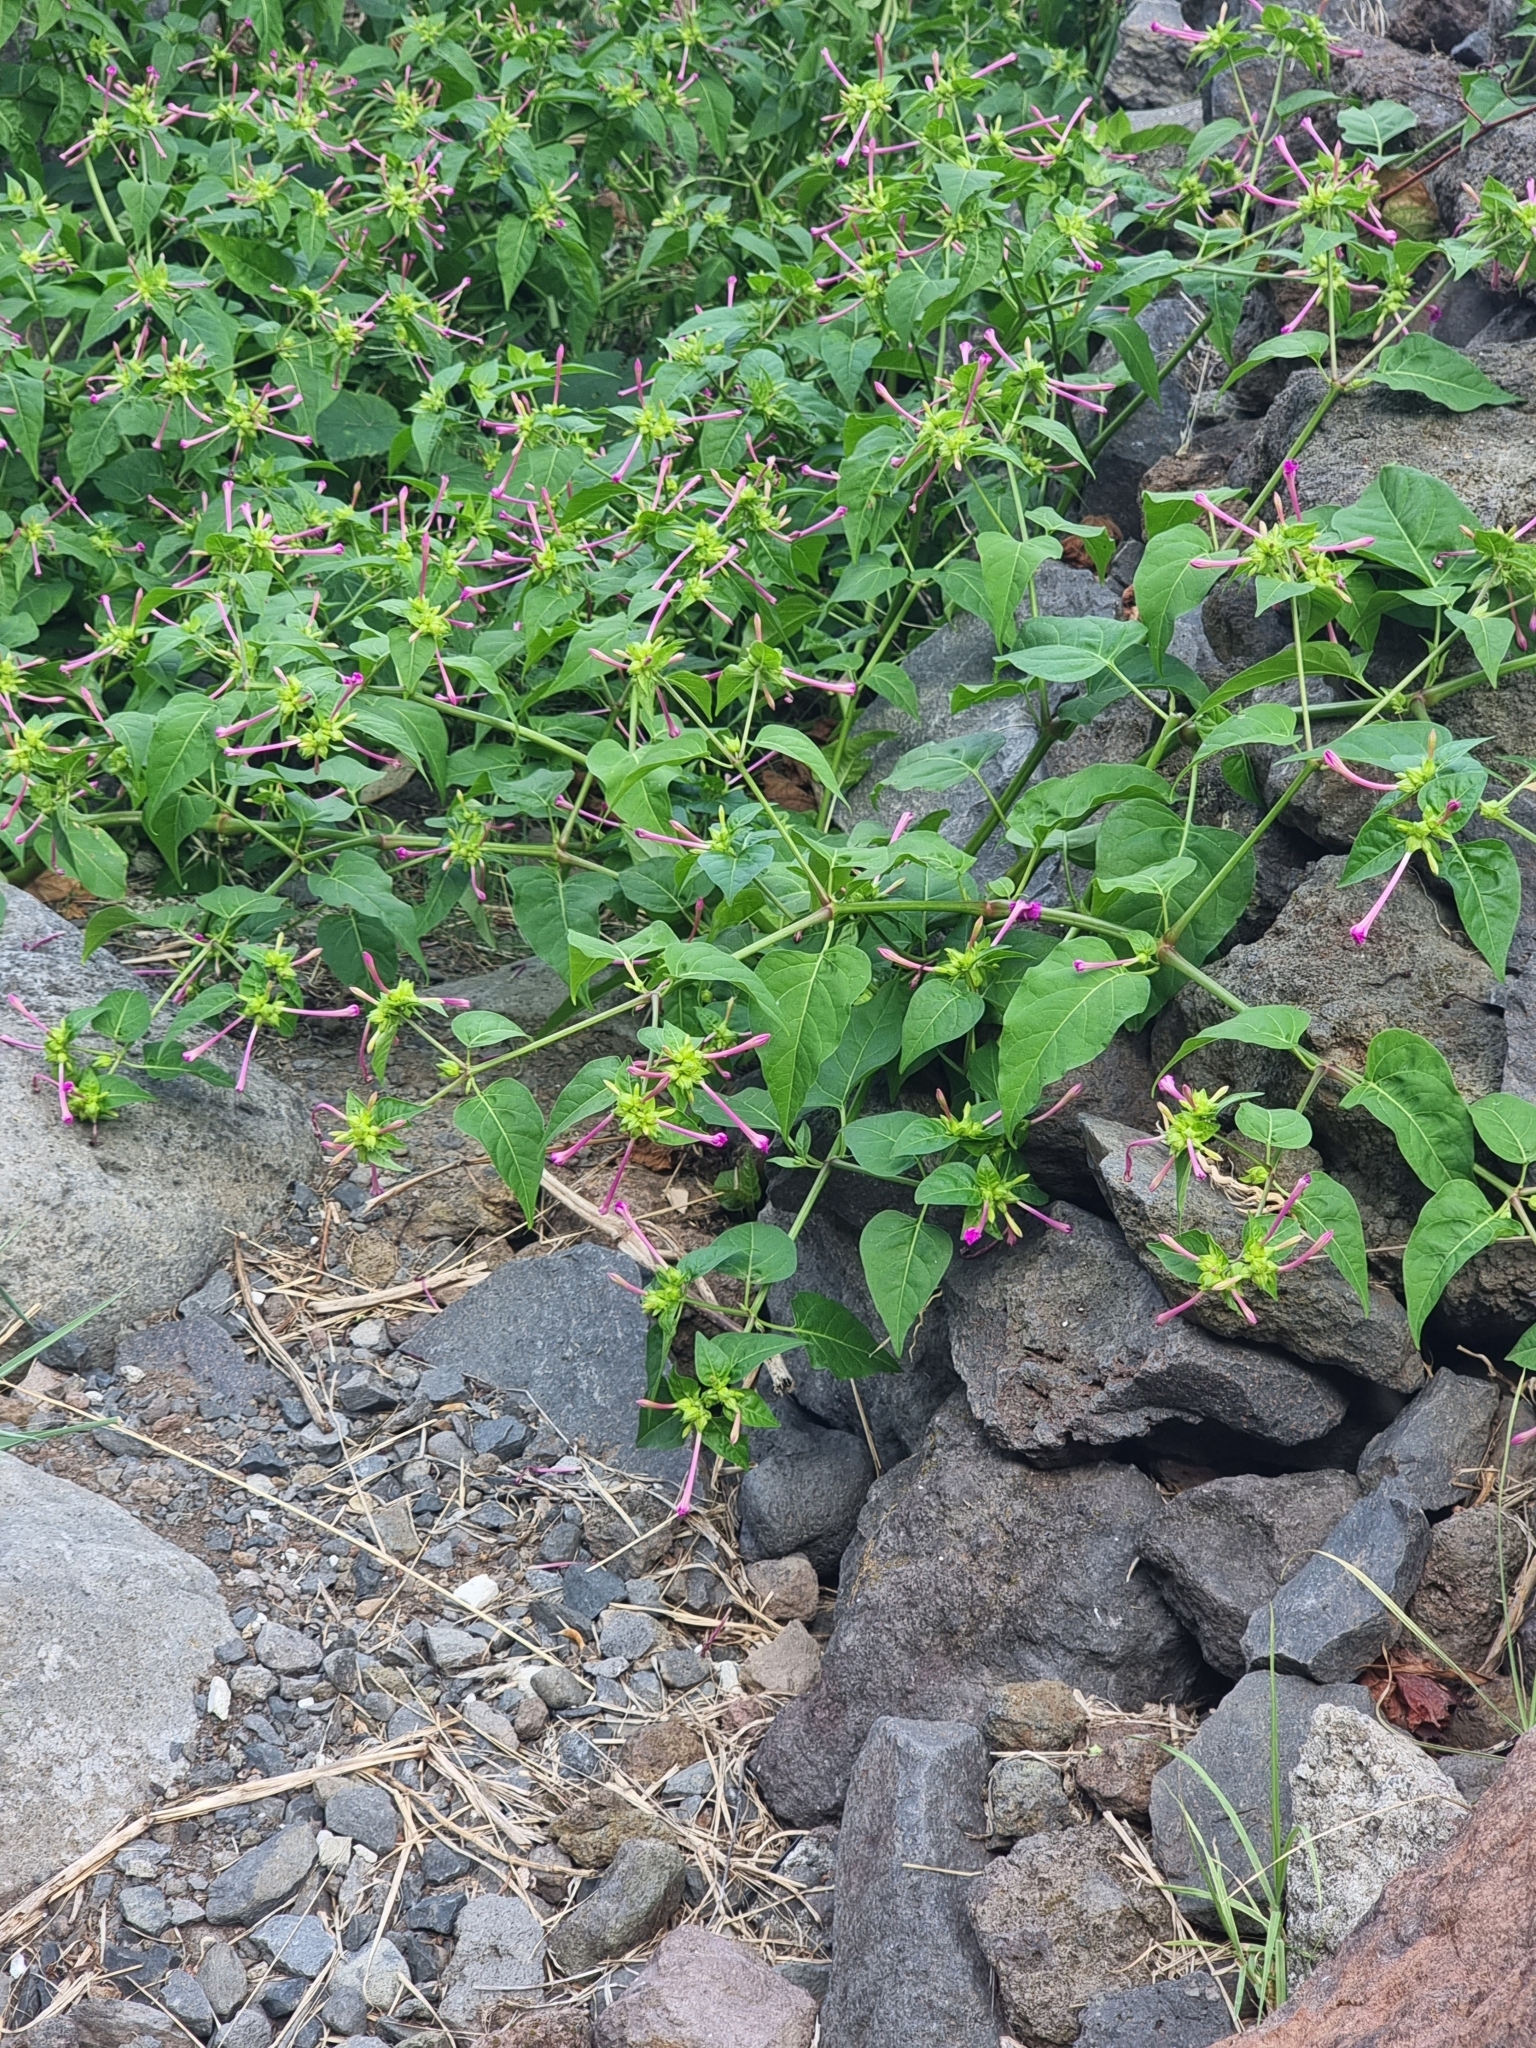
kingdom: Plantae
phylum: Tracheophyta
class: Magnoliopsida
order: Caryophyllales
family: Nyctaginaceae
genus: Mirabilis
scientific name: Mirabilis jalapa
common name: Marvel-of-peru
